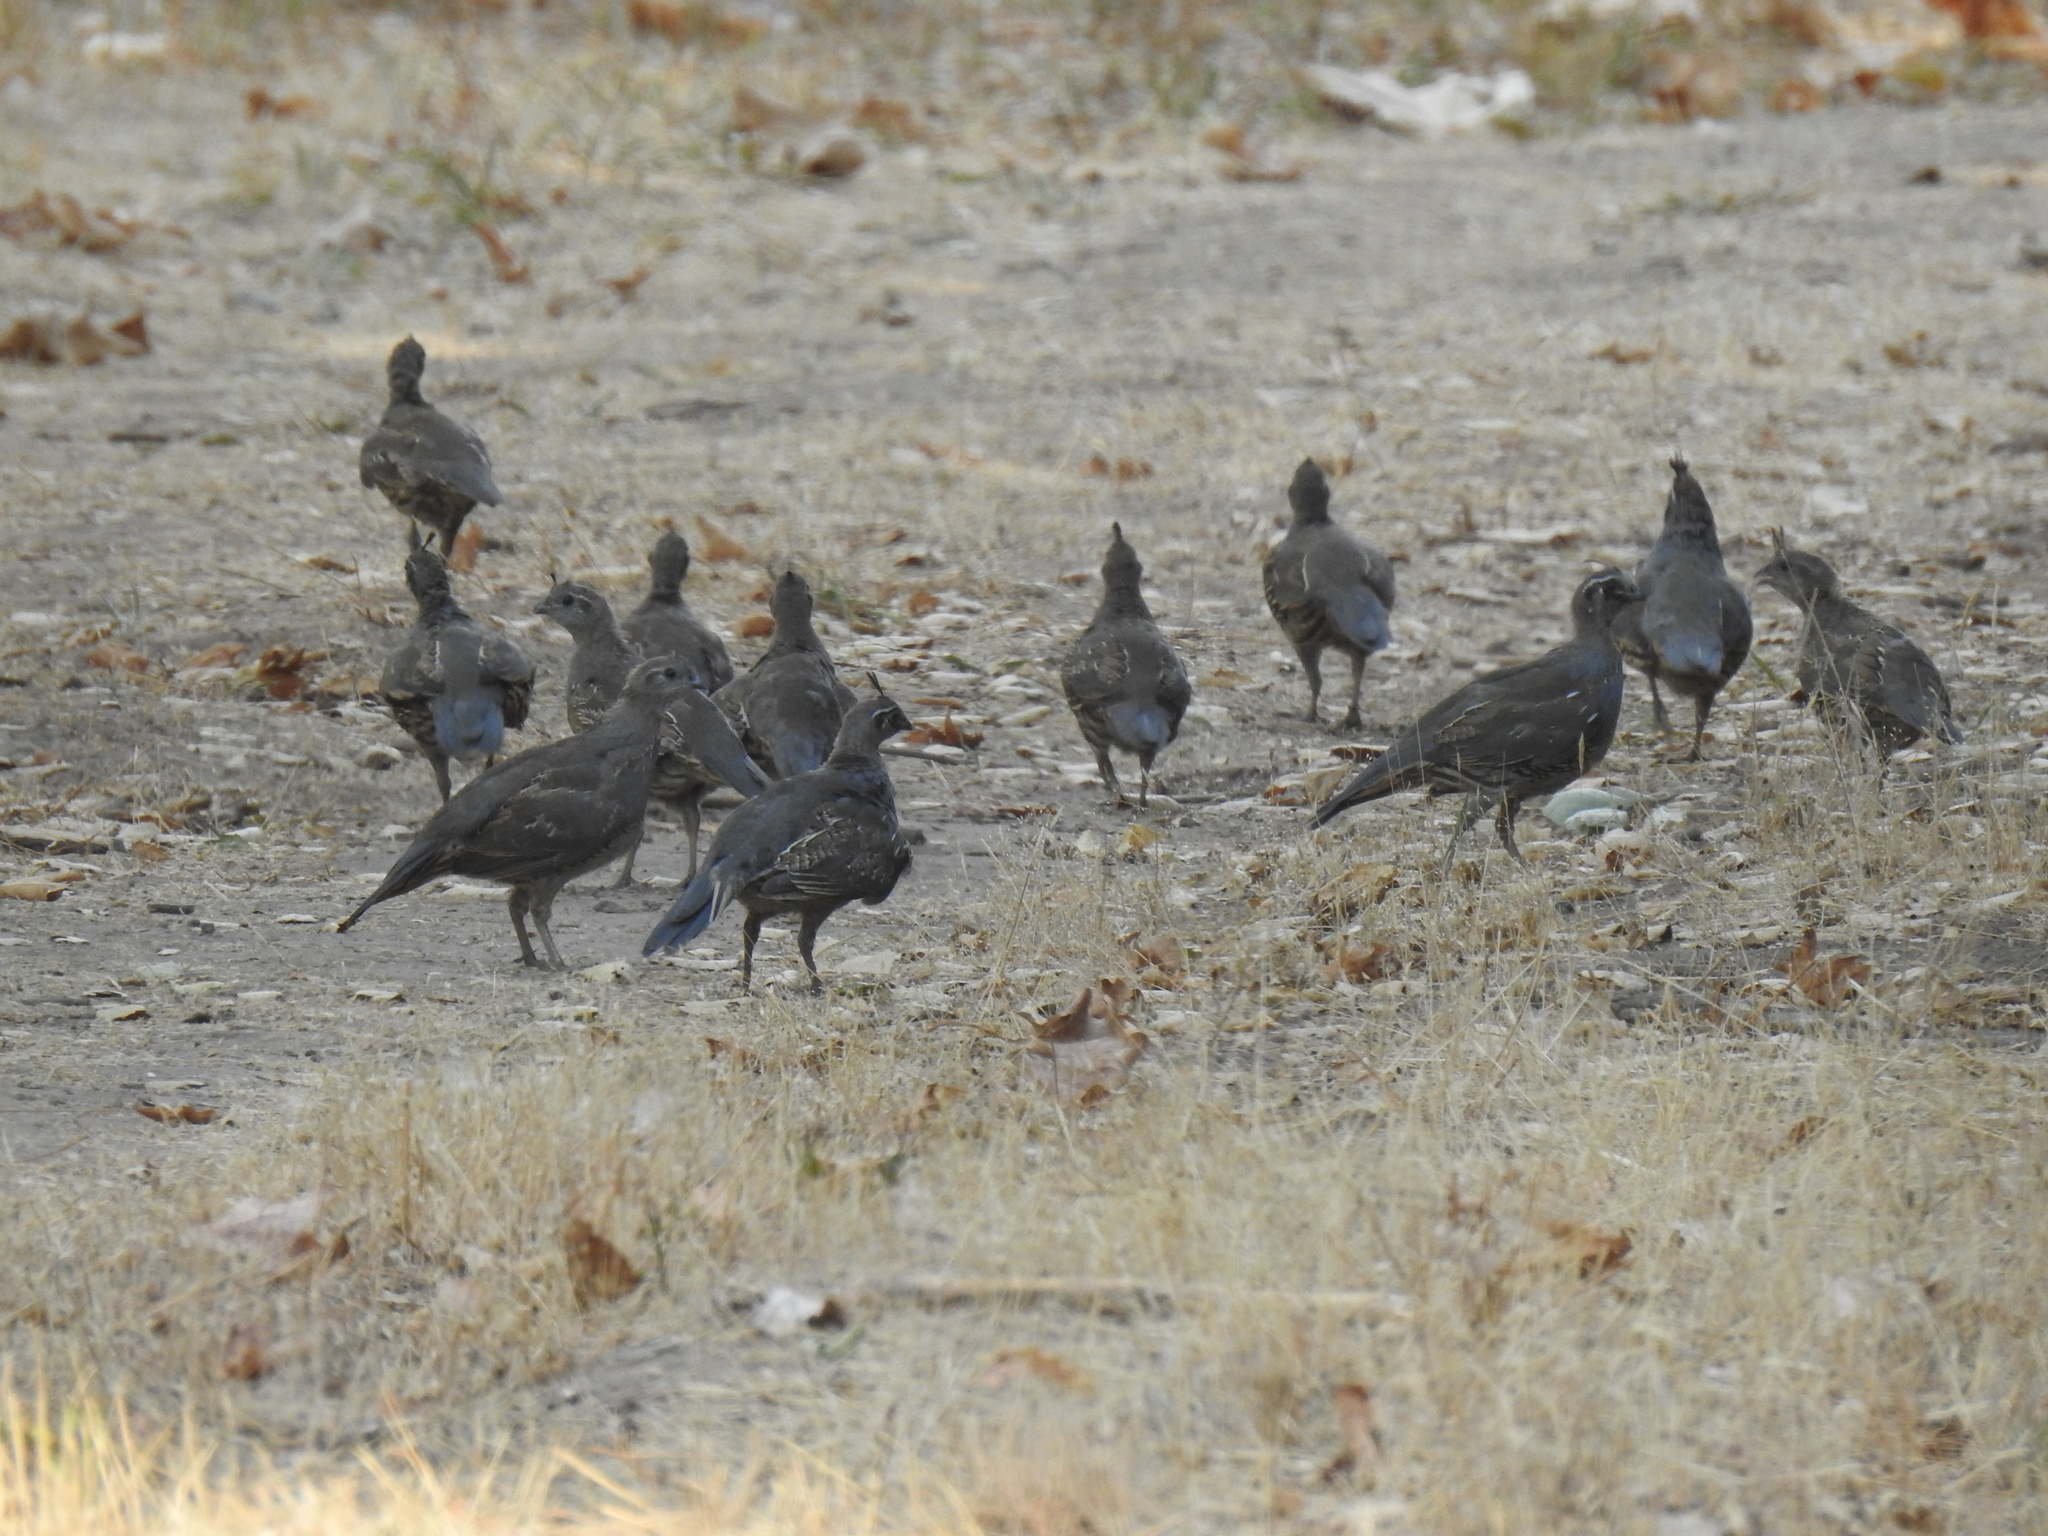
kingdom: Animalia
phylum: Chordata
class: Aves
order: Galliformes
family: Odontophoridae
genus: Callipepla
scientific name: Callipepla californica
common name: California quail
